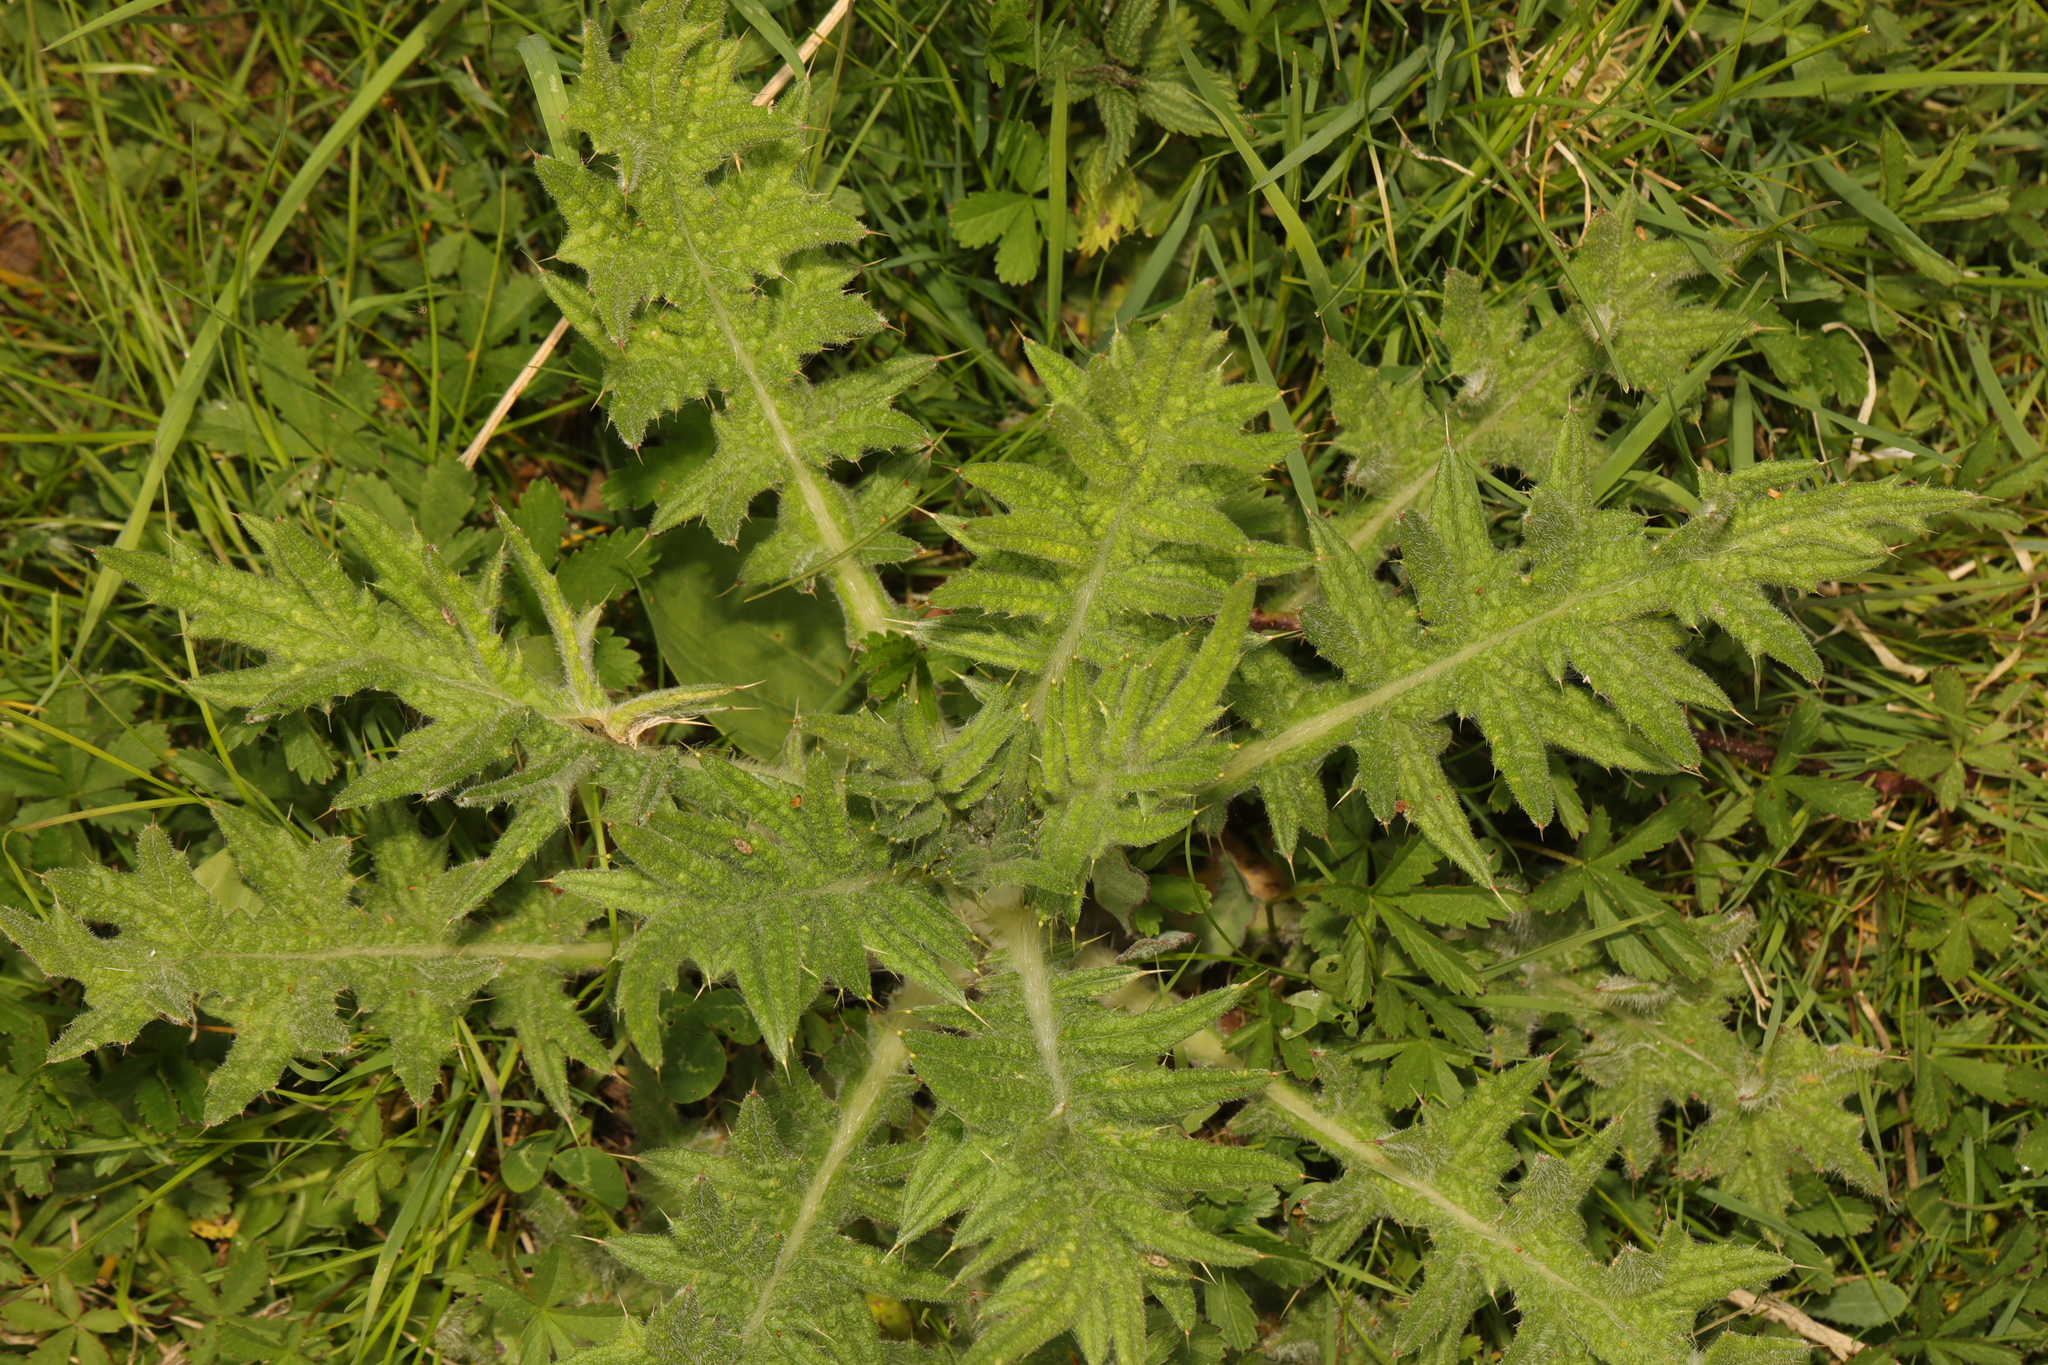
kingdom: Plantae
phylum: Tracheophyta
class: Magnoliopsida
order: Asterales
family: Asteraceae
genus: Cirsium
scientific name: Cirsium vulgare
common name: Bull thistle
